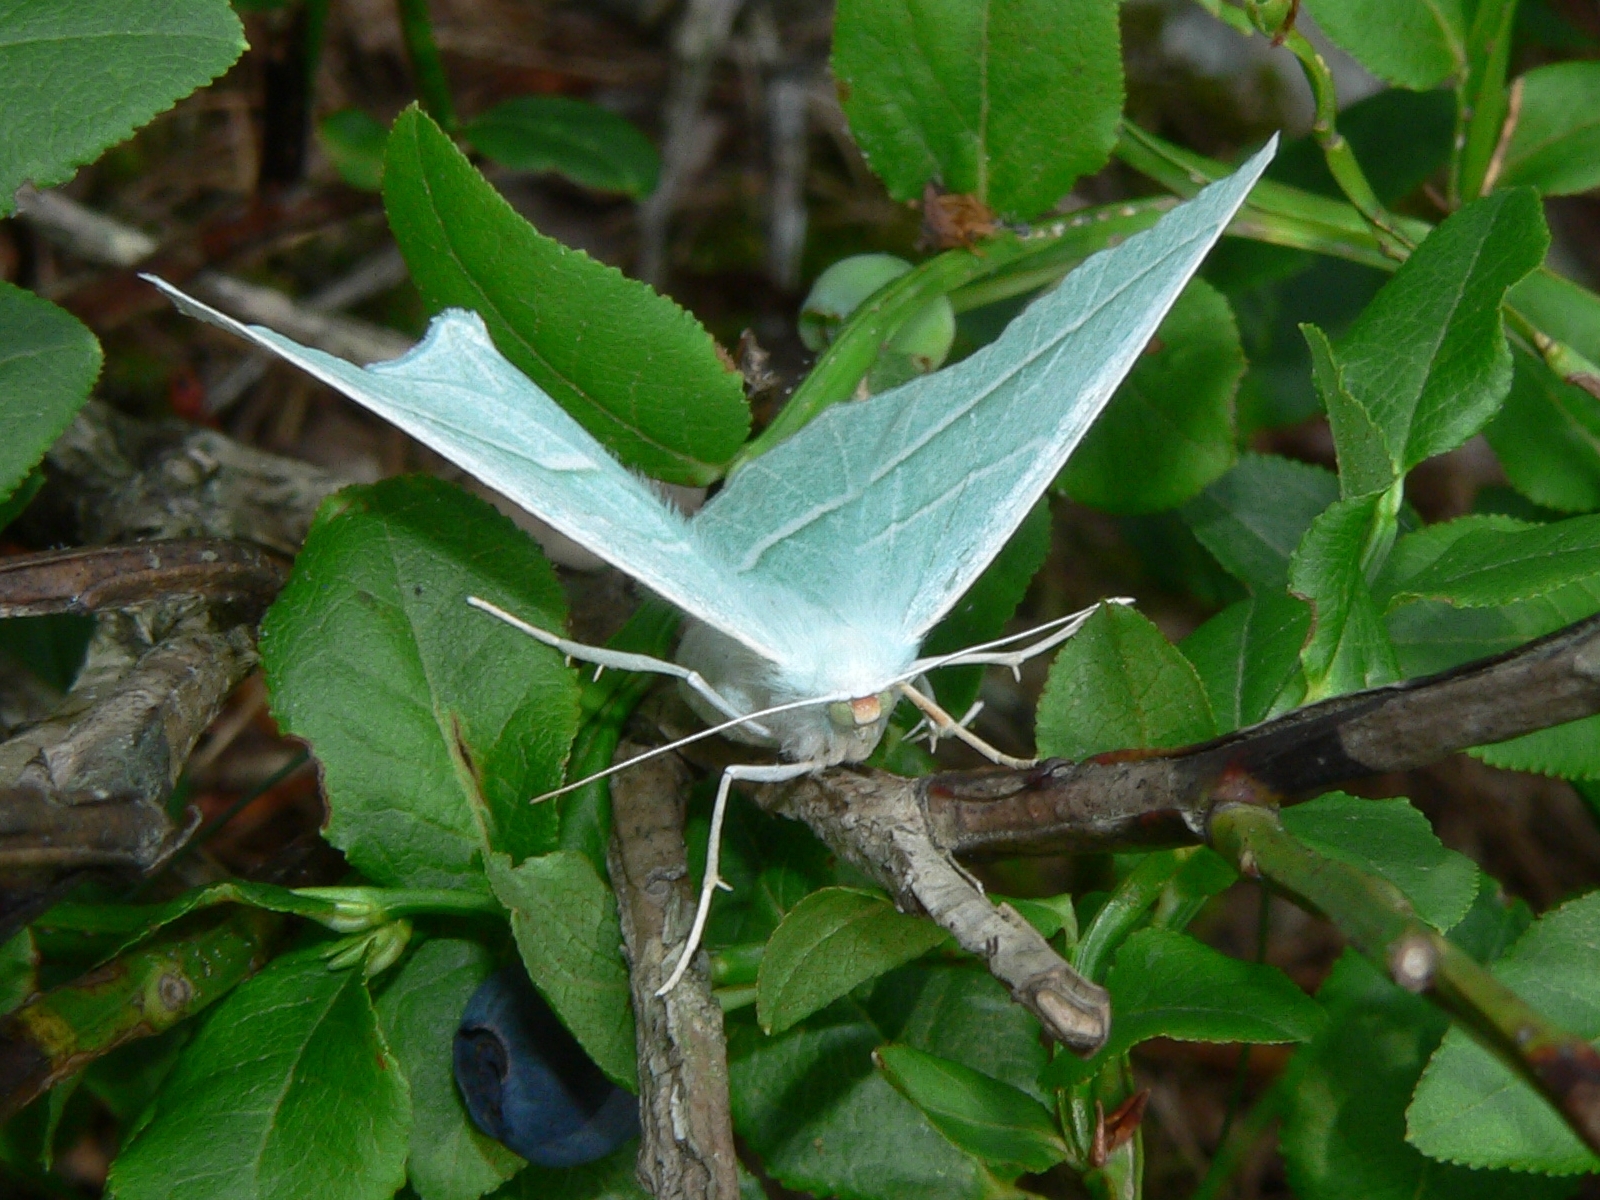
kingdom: Animalia
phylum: Arthropoda
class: Insecta
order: Lepidoptera
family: Geometridae
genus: Campaea
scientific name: Campaea margaritaria
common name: Light emerald
